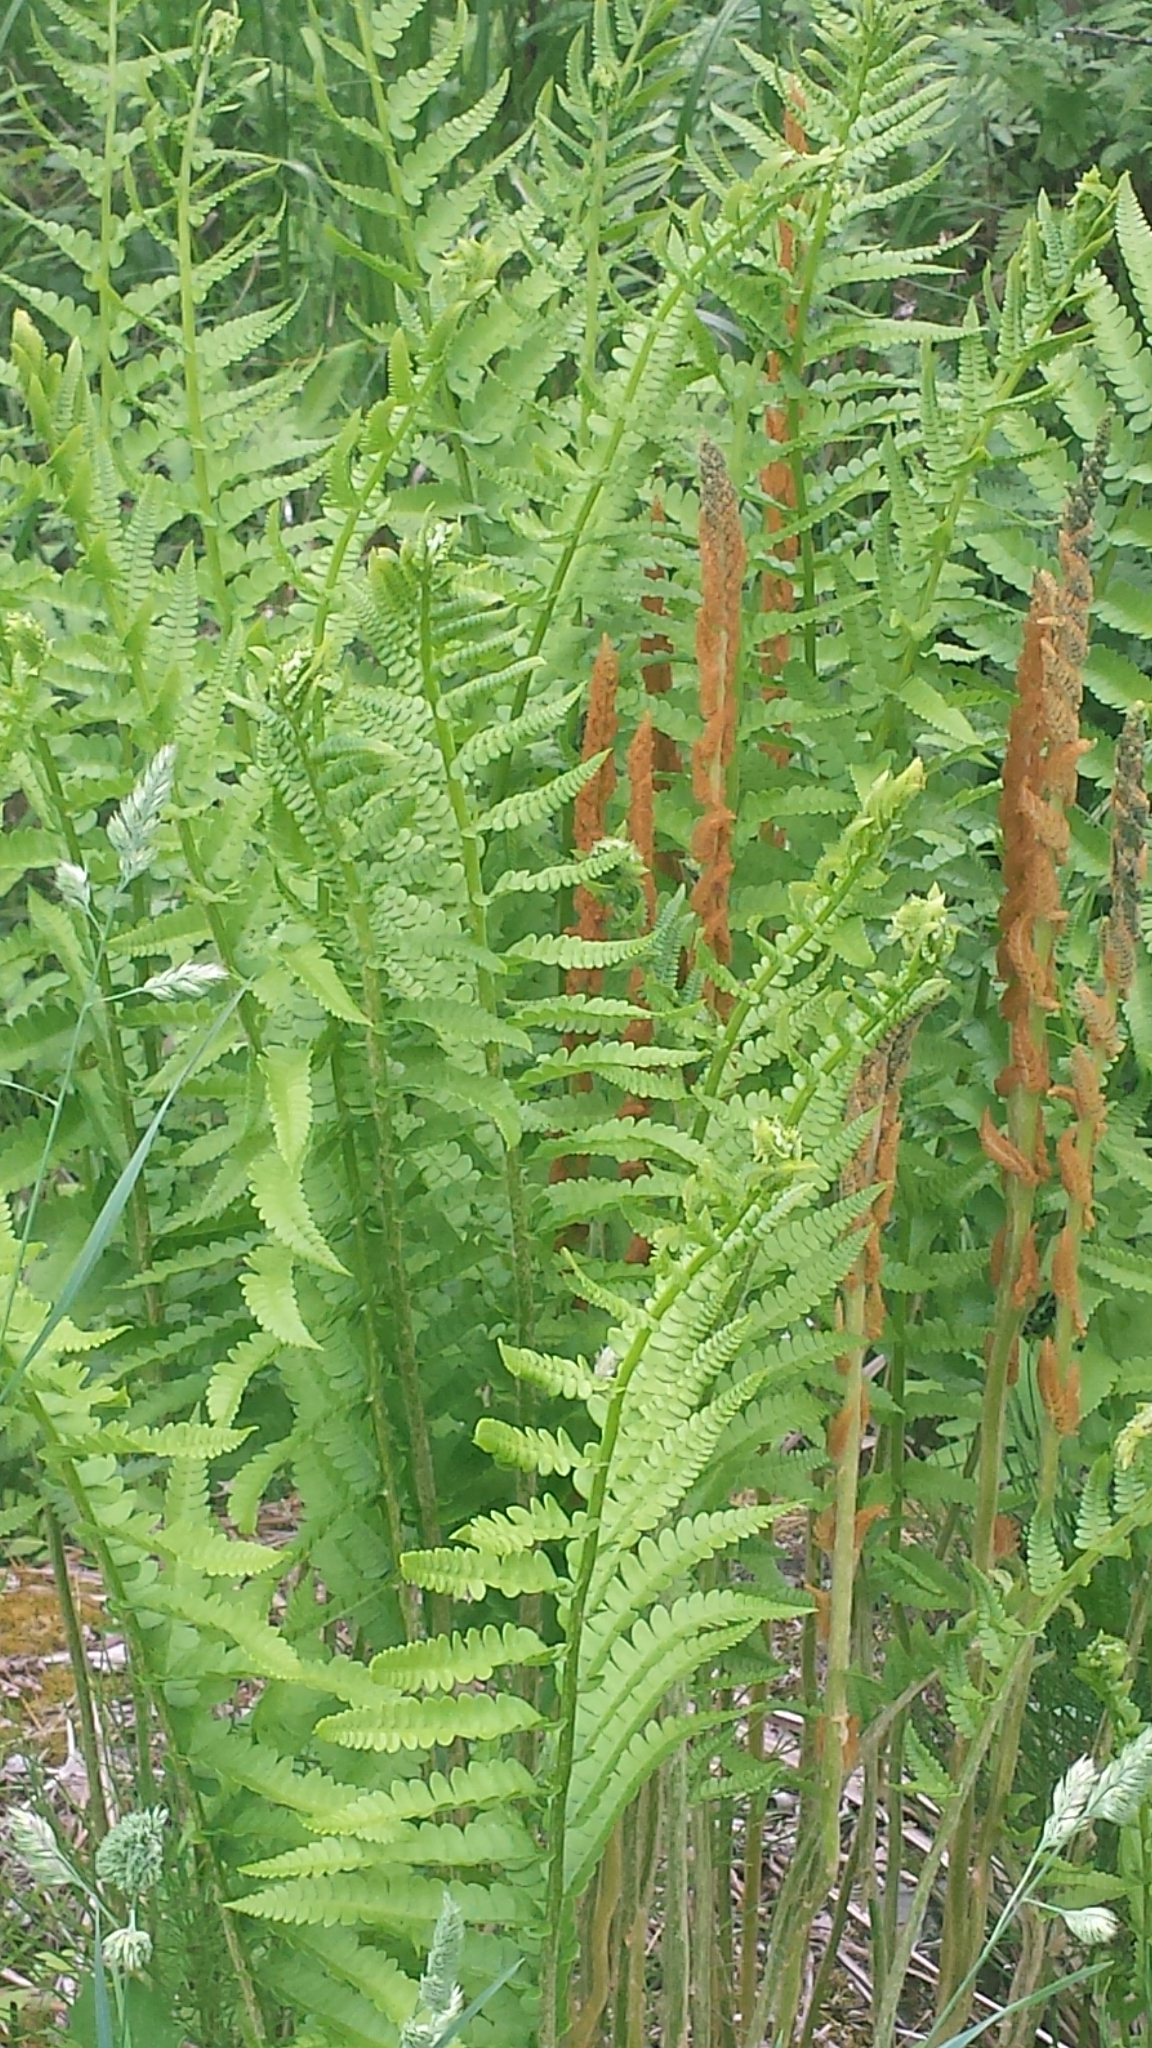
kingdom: Plantae
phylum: Tracheophyta
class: Polypodiopsida
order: Osmundales
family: Osmundaceae
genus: Osmundastrum
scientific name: Osmundastrum cinnamomeum
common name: Cinnamon fern
